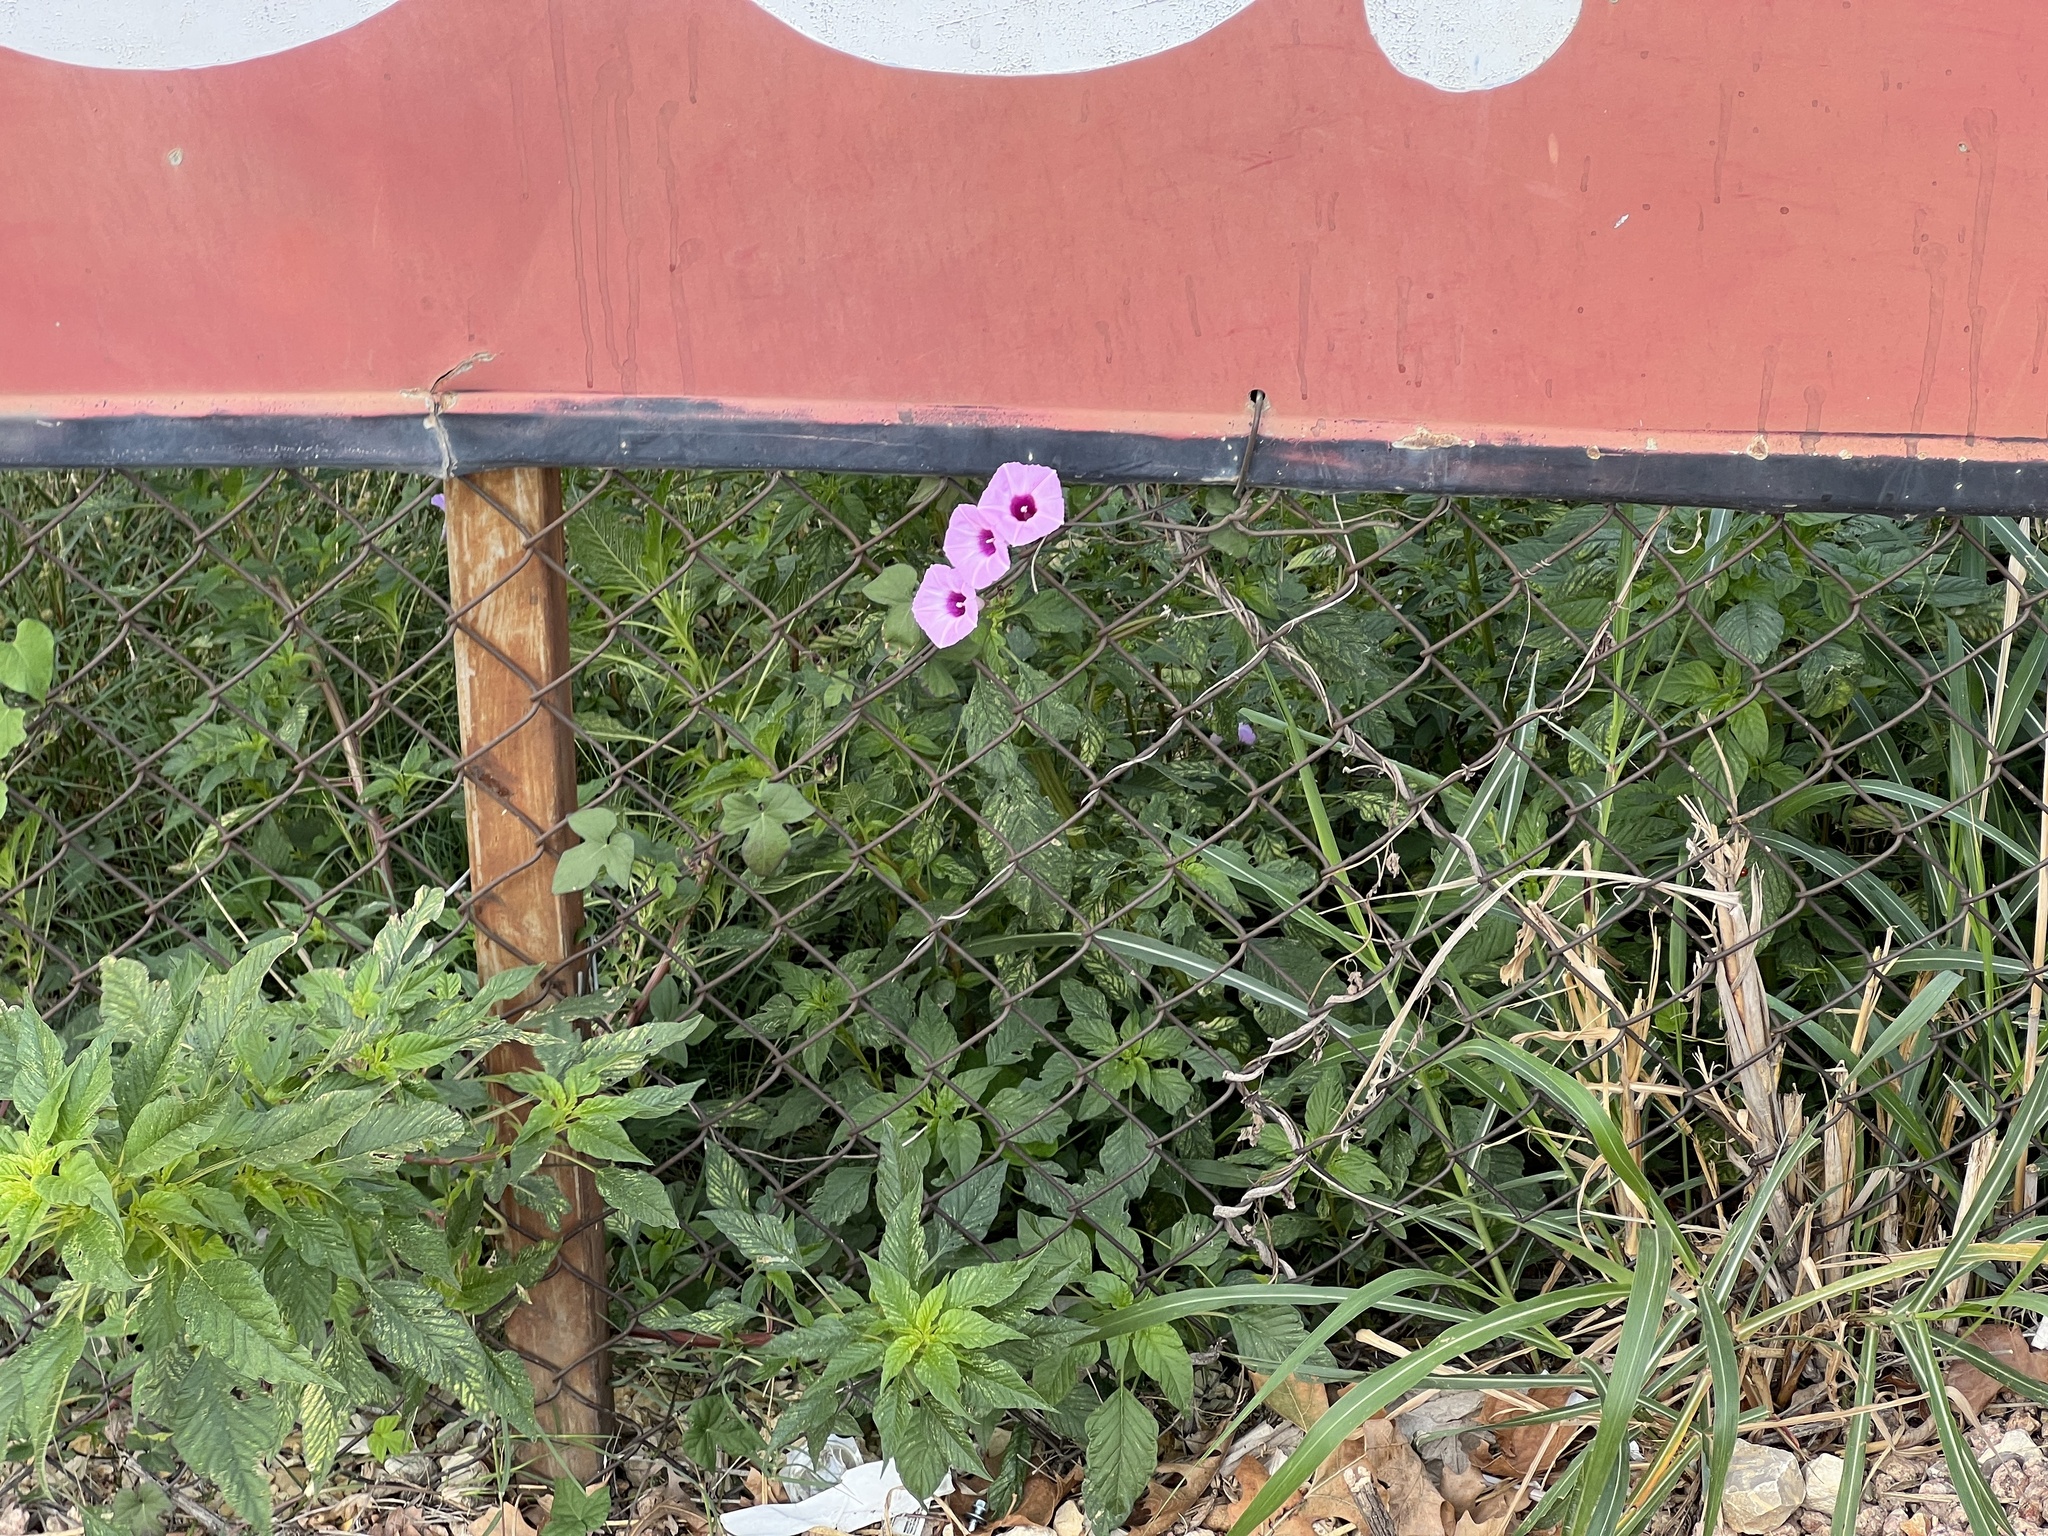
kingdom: Plantae
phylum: Tracheophyta
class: Magnoliopsida
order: Solanales
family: Convolvulaceae
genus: Ipomoea
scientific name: Ipomoea cordatotriloba
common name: Cotton morning glory
